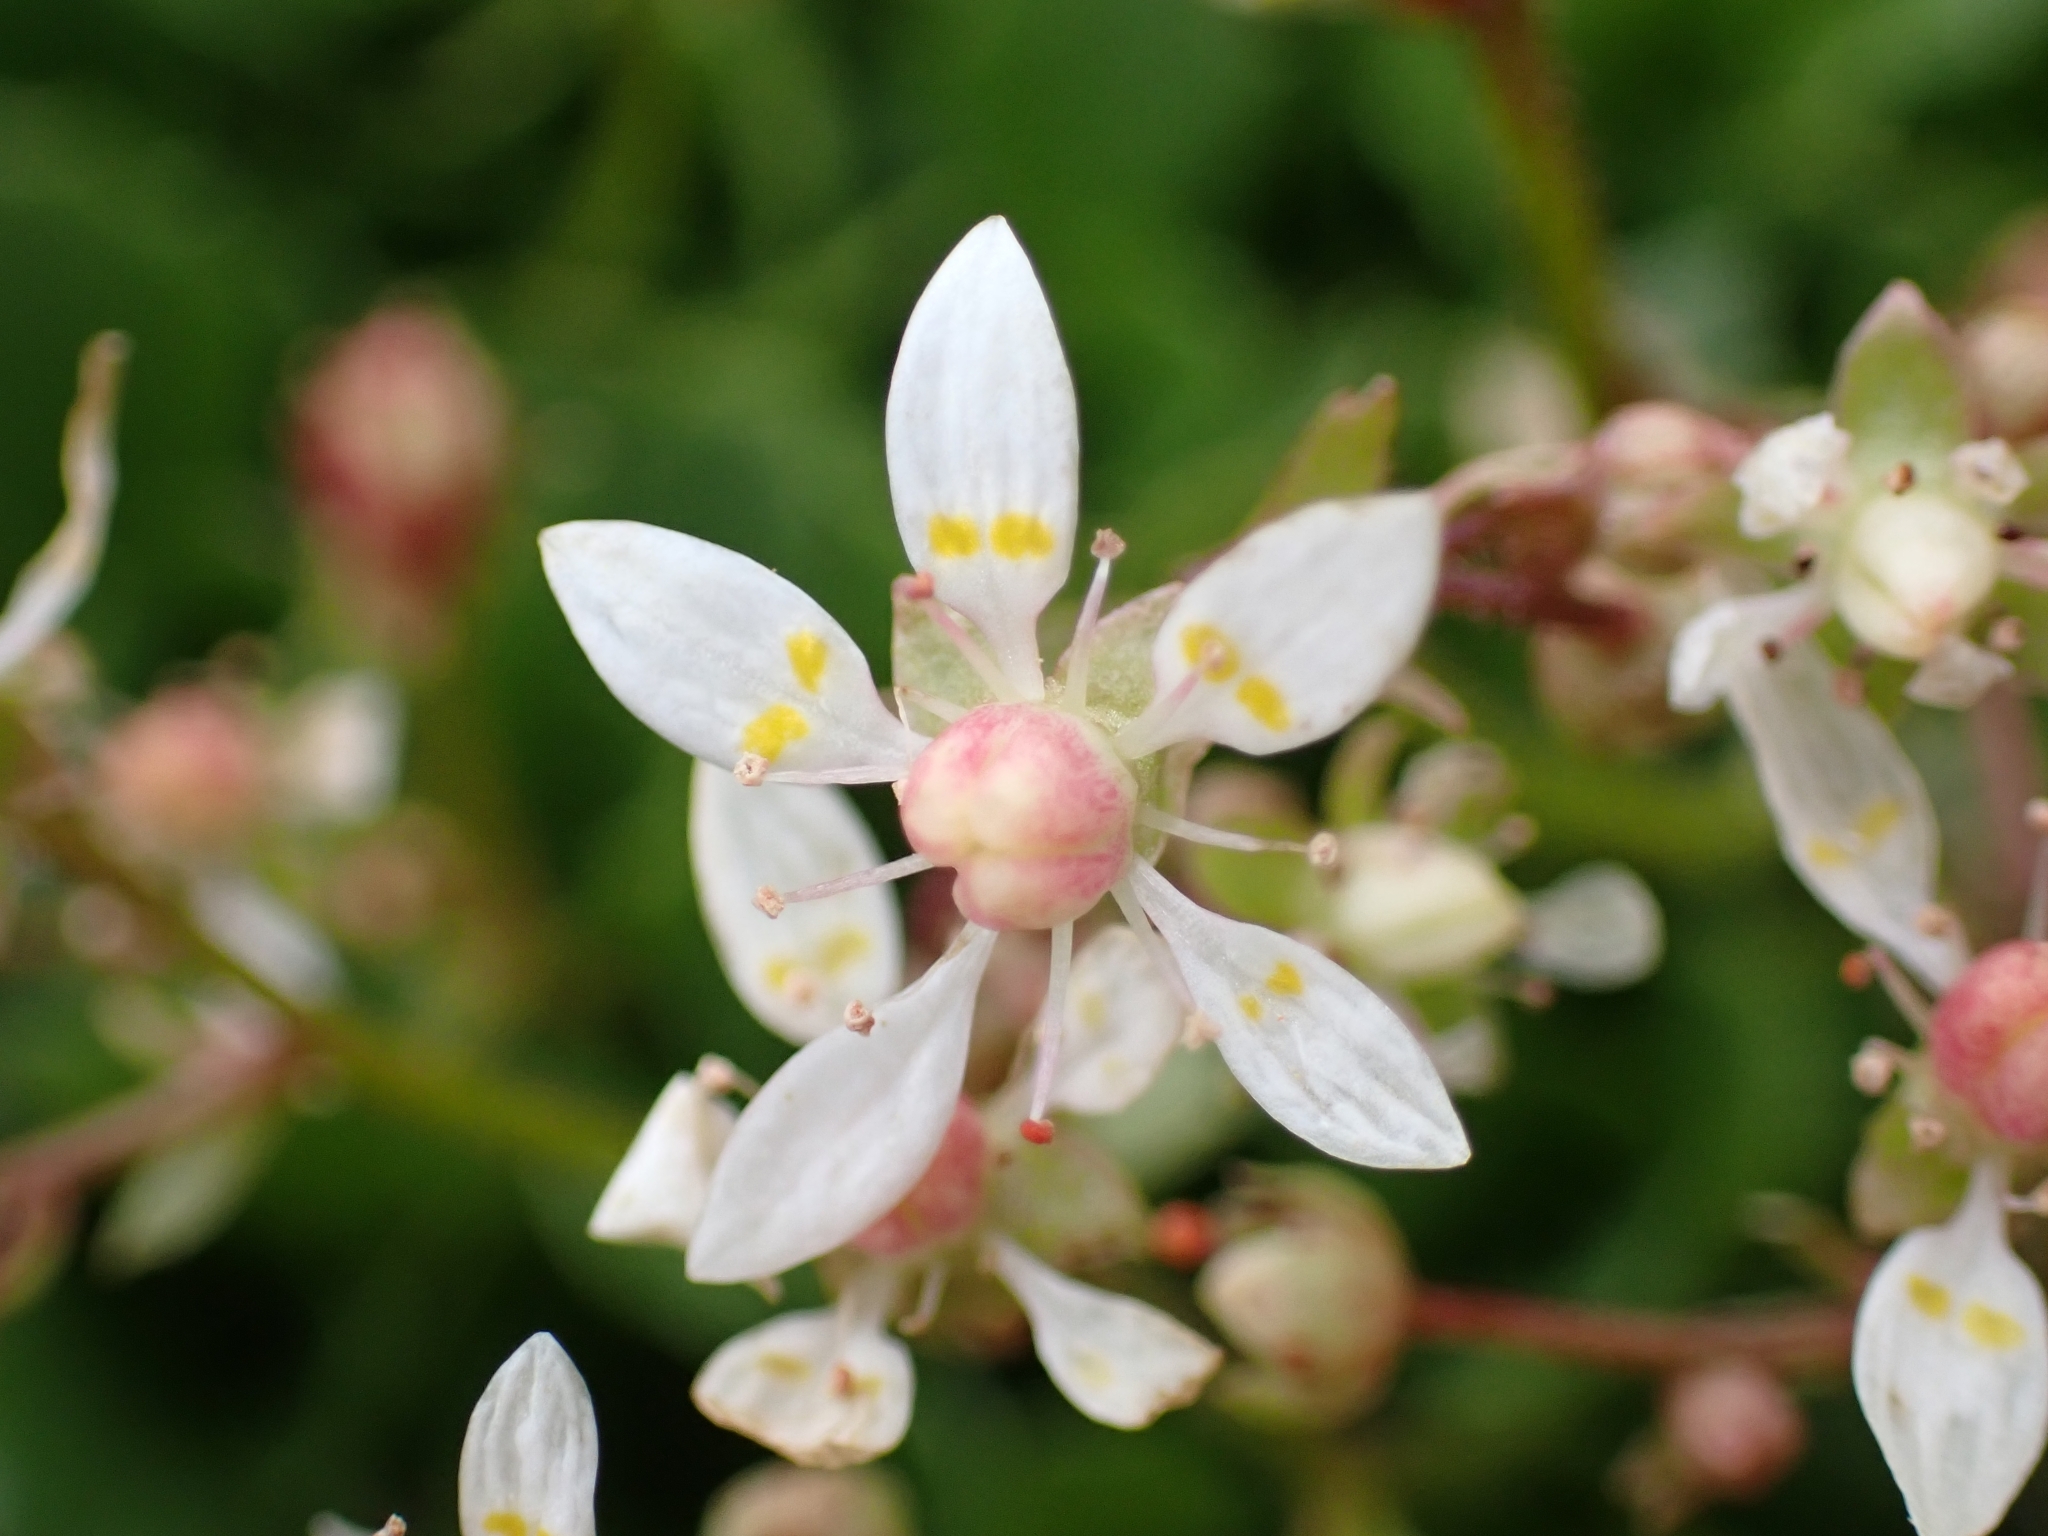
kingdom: Plantae
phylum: Tracheophyta
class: Magnoliopsida
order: Saxifragales
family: Saxifragaceae
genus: Micranthes
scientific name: Micranthes stellaris
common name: Starry saxifrage
